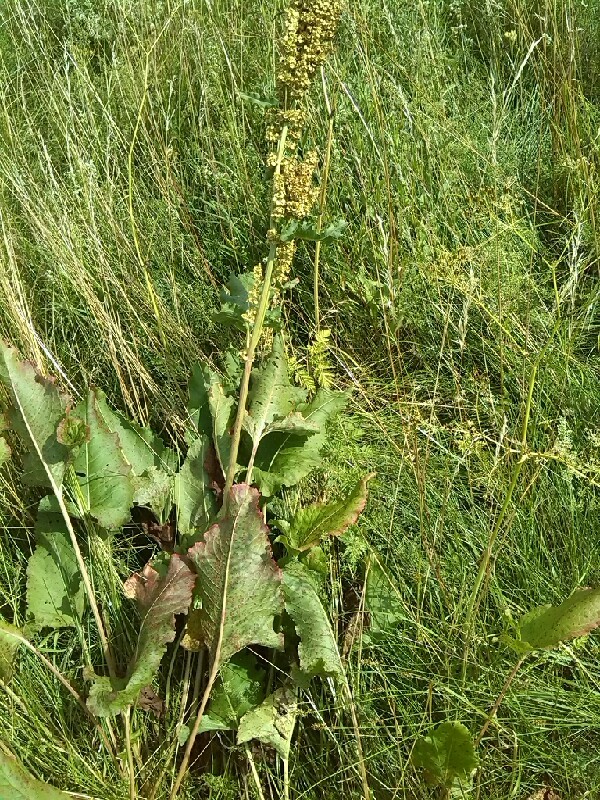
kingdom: Plantae
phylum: Tracheophyta
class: Magnoliopsida
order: Caryophyllales
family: Polygonaceae
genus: Rumex
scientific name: Rumex confertus
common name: Russian dock
